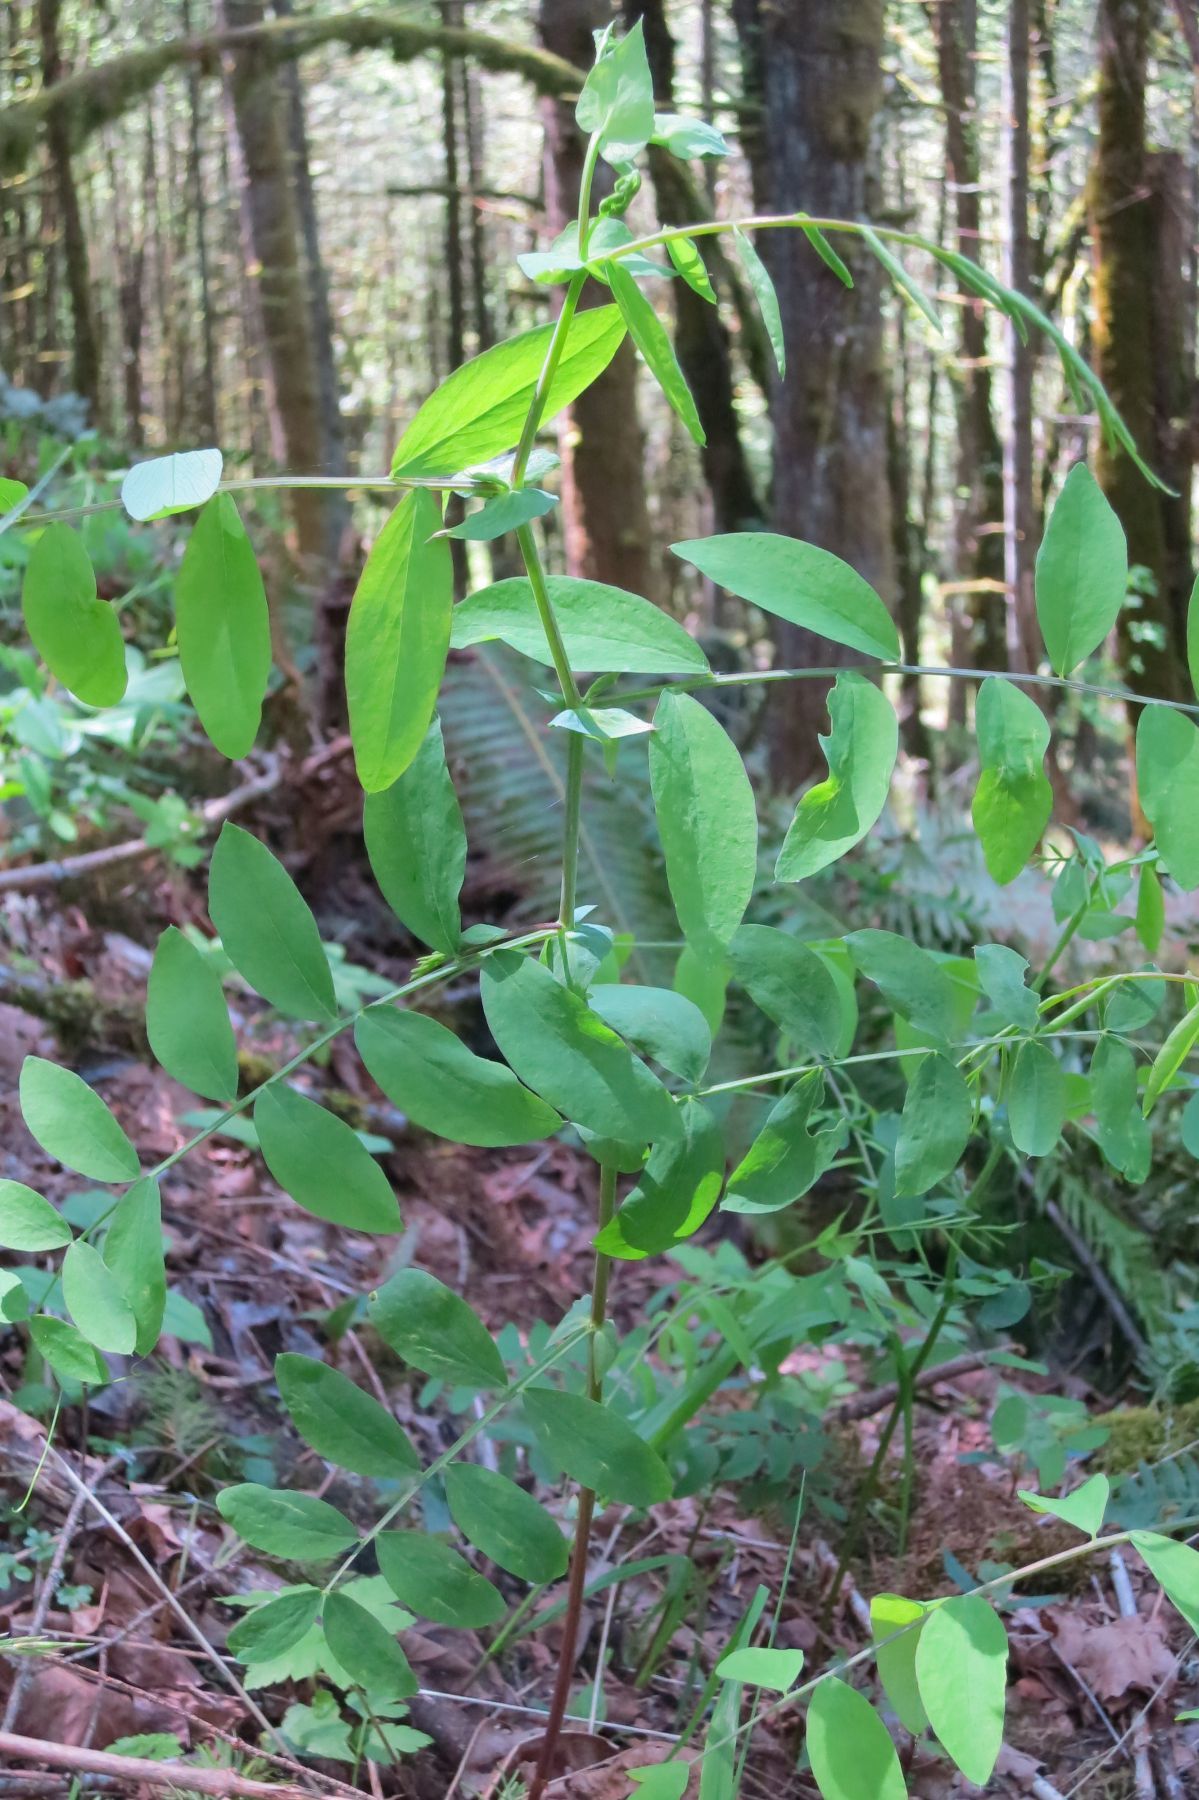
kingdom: Plantae
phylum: Tracheophyta
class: Magnoliopsida
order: Fabales
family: Fabaceae
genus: Lathyrus
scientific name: Lathyrus polyphyllus
